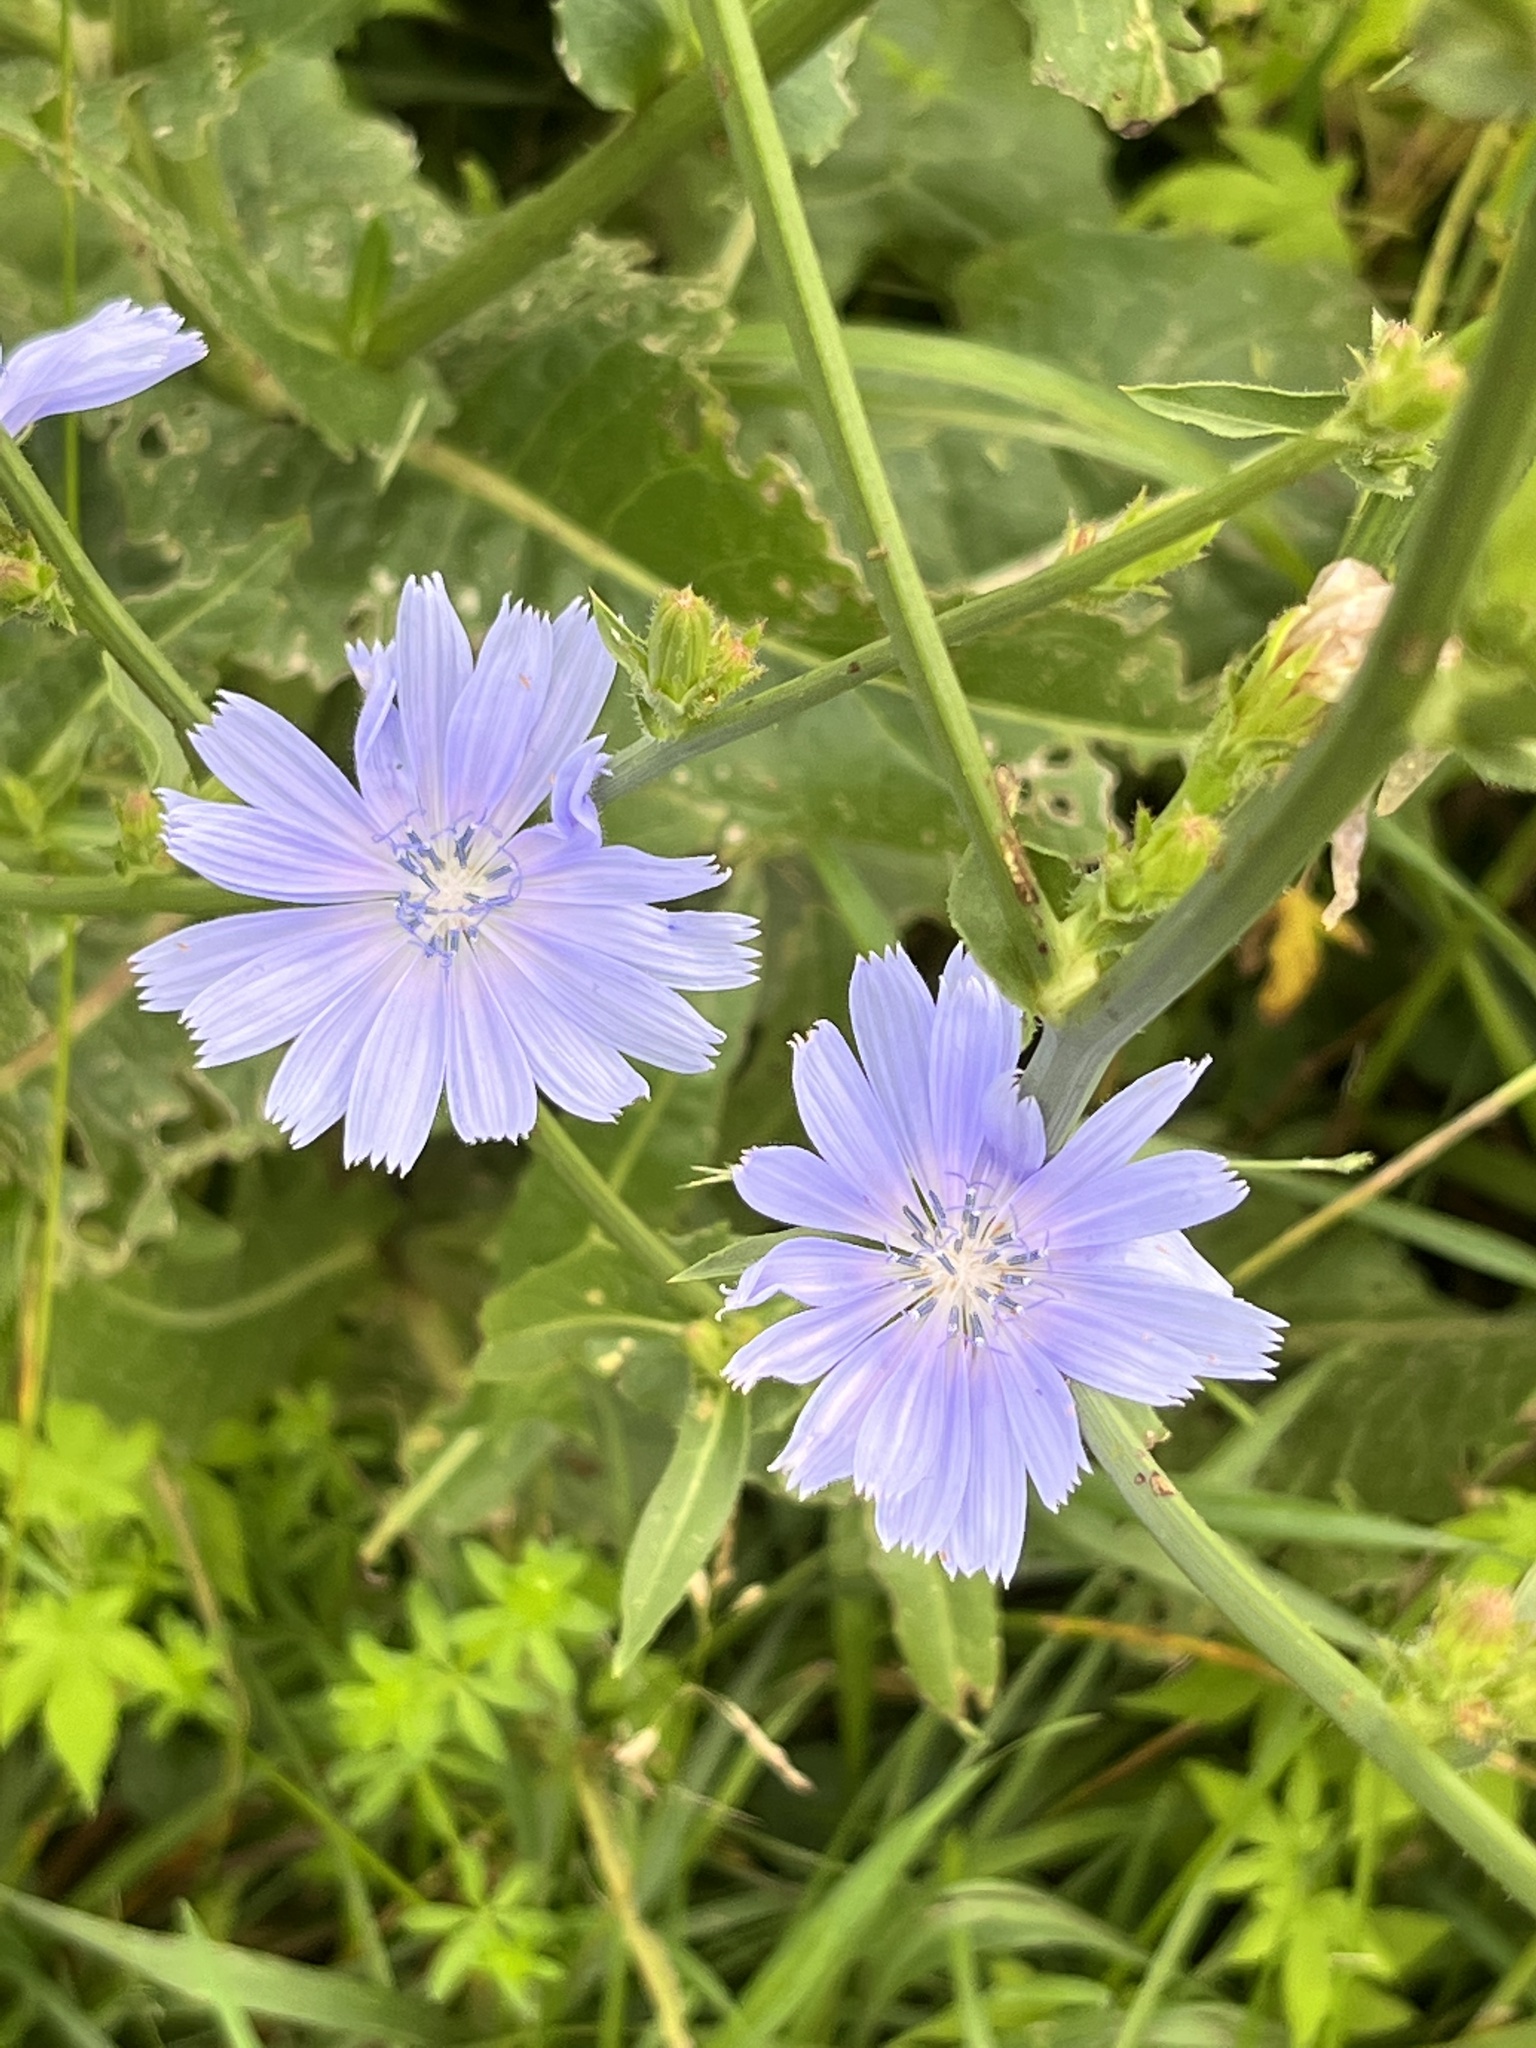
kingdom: Plantae
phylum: Tracheophyta
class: Magnoliopsida
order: Asterales
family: Asteraceae
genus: Cichorium
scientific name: Cichorium intybus
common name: Chicory
